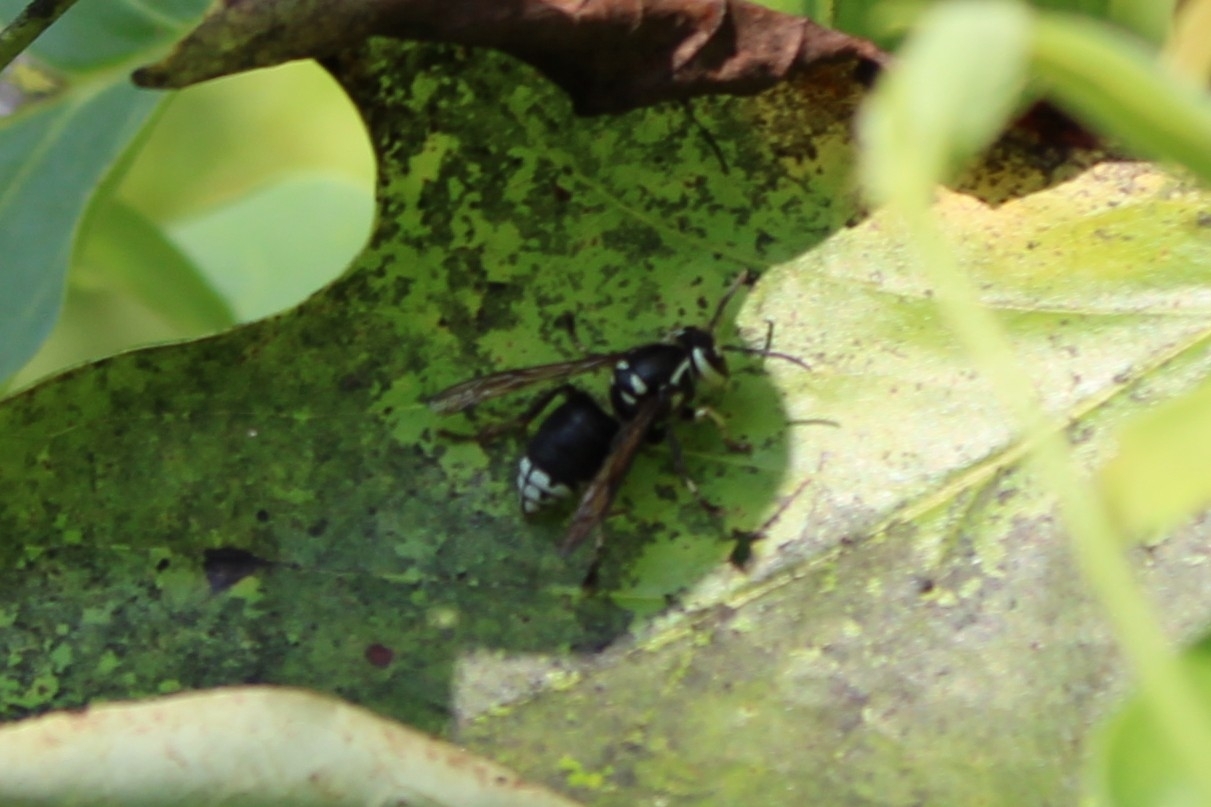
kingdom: Animalia
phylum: Arthropoda
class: Insecta
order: Hymenoptera
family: Vespidae
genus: Dolichovespula
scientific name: Dolichovespula maculata
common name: Bald-faced hornet
